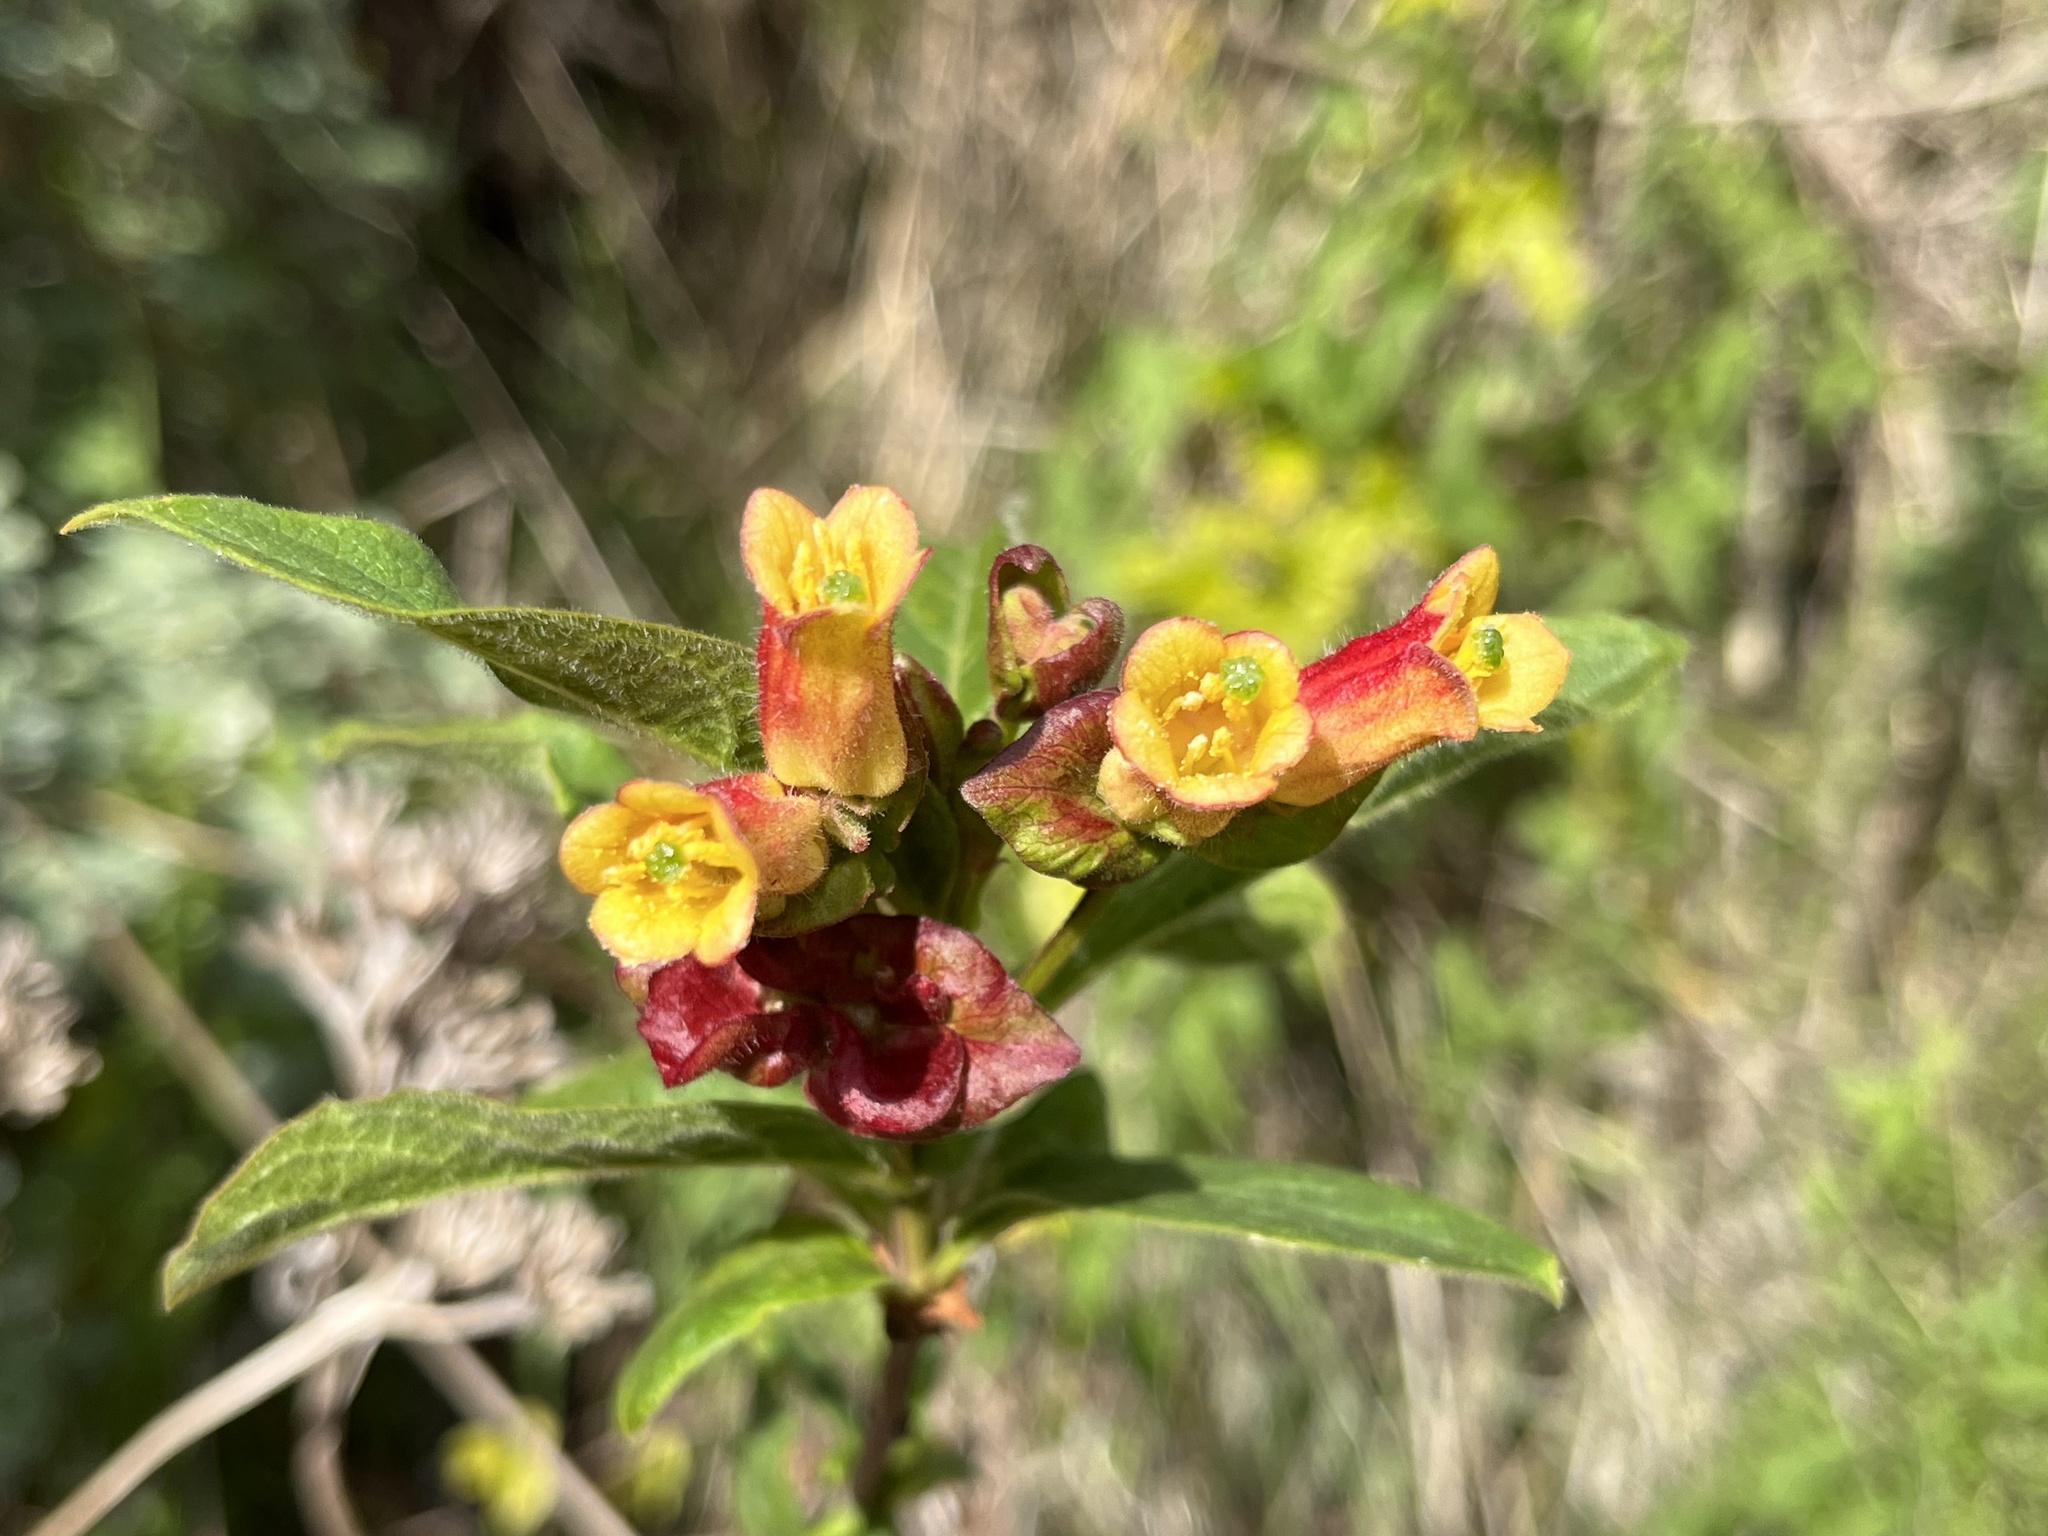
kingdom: Plantae
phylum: Tracheophyta
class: Magnoliopsida
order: Dipsacales
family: Caprifoliaceae
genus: Lonicera
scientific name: Lonicera involucrata
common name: Californian honeysuckle
